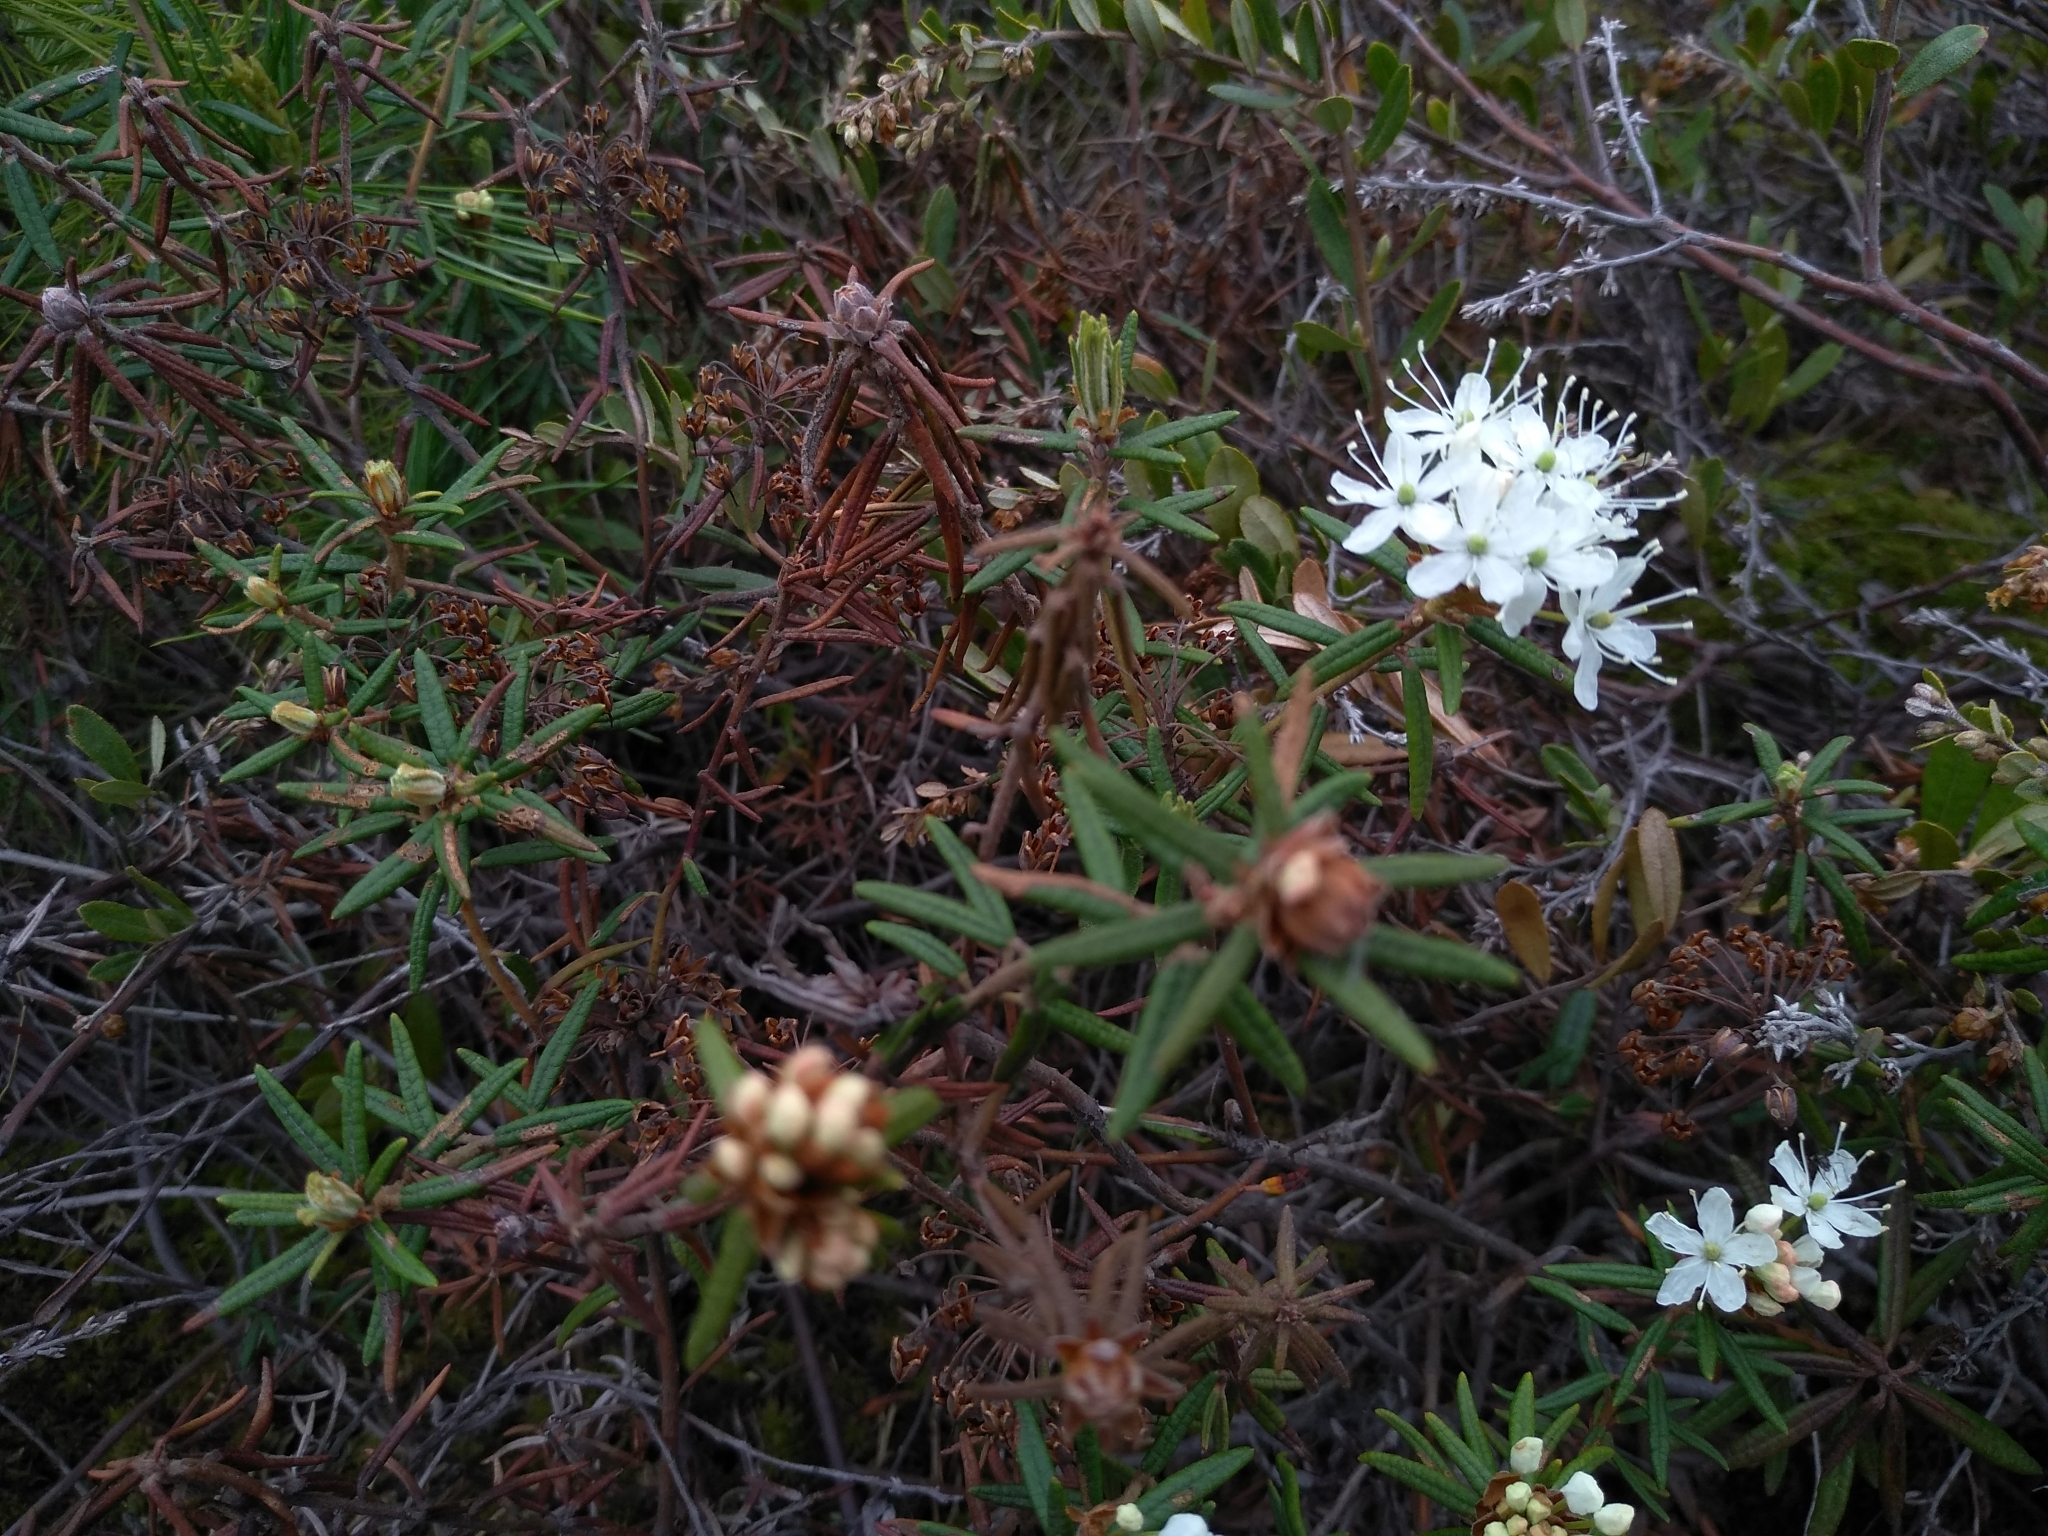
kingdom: Plantae
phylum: Tracheophyta
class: Magnoliopsida
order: Ericales
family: Ericaceae
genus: Rhododendron
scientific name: Rhododendron tomentosum
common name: Marsh labrador tea
